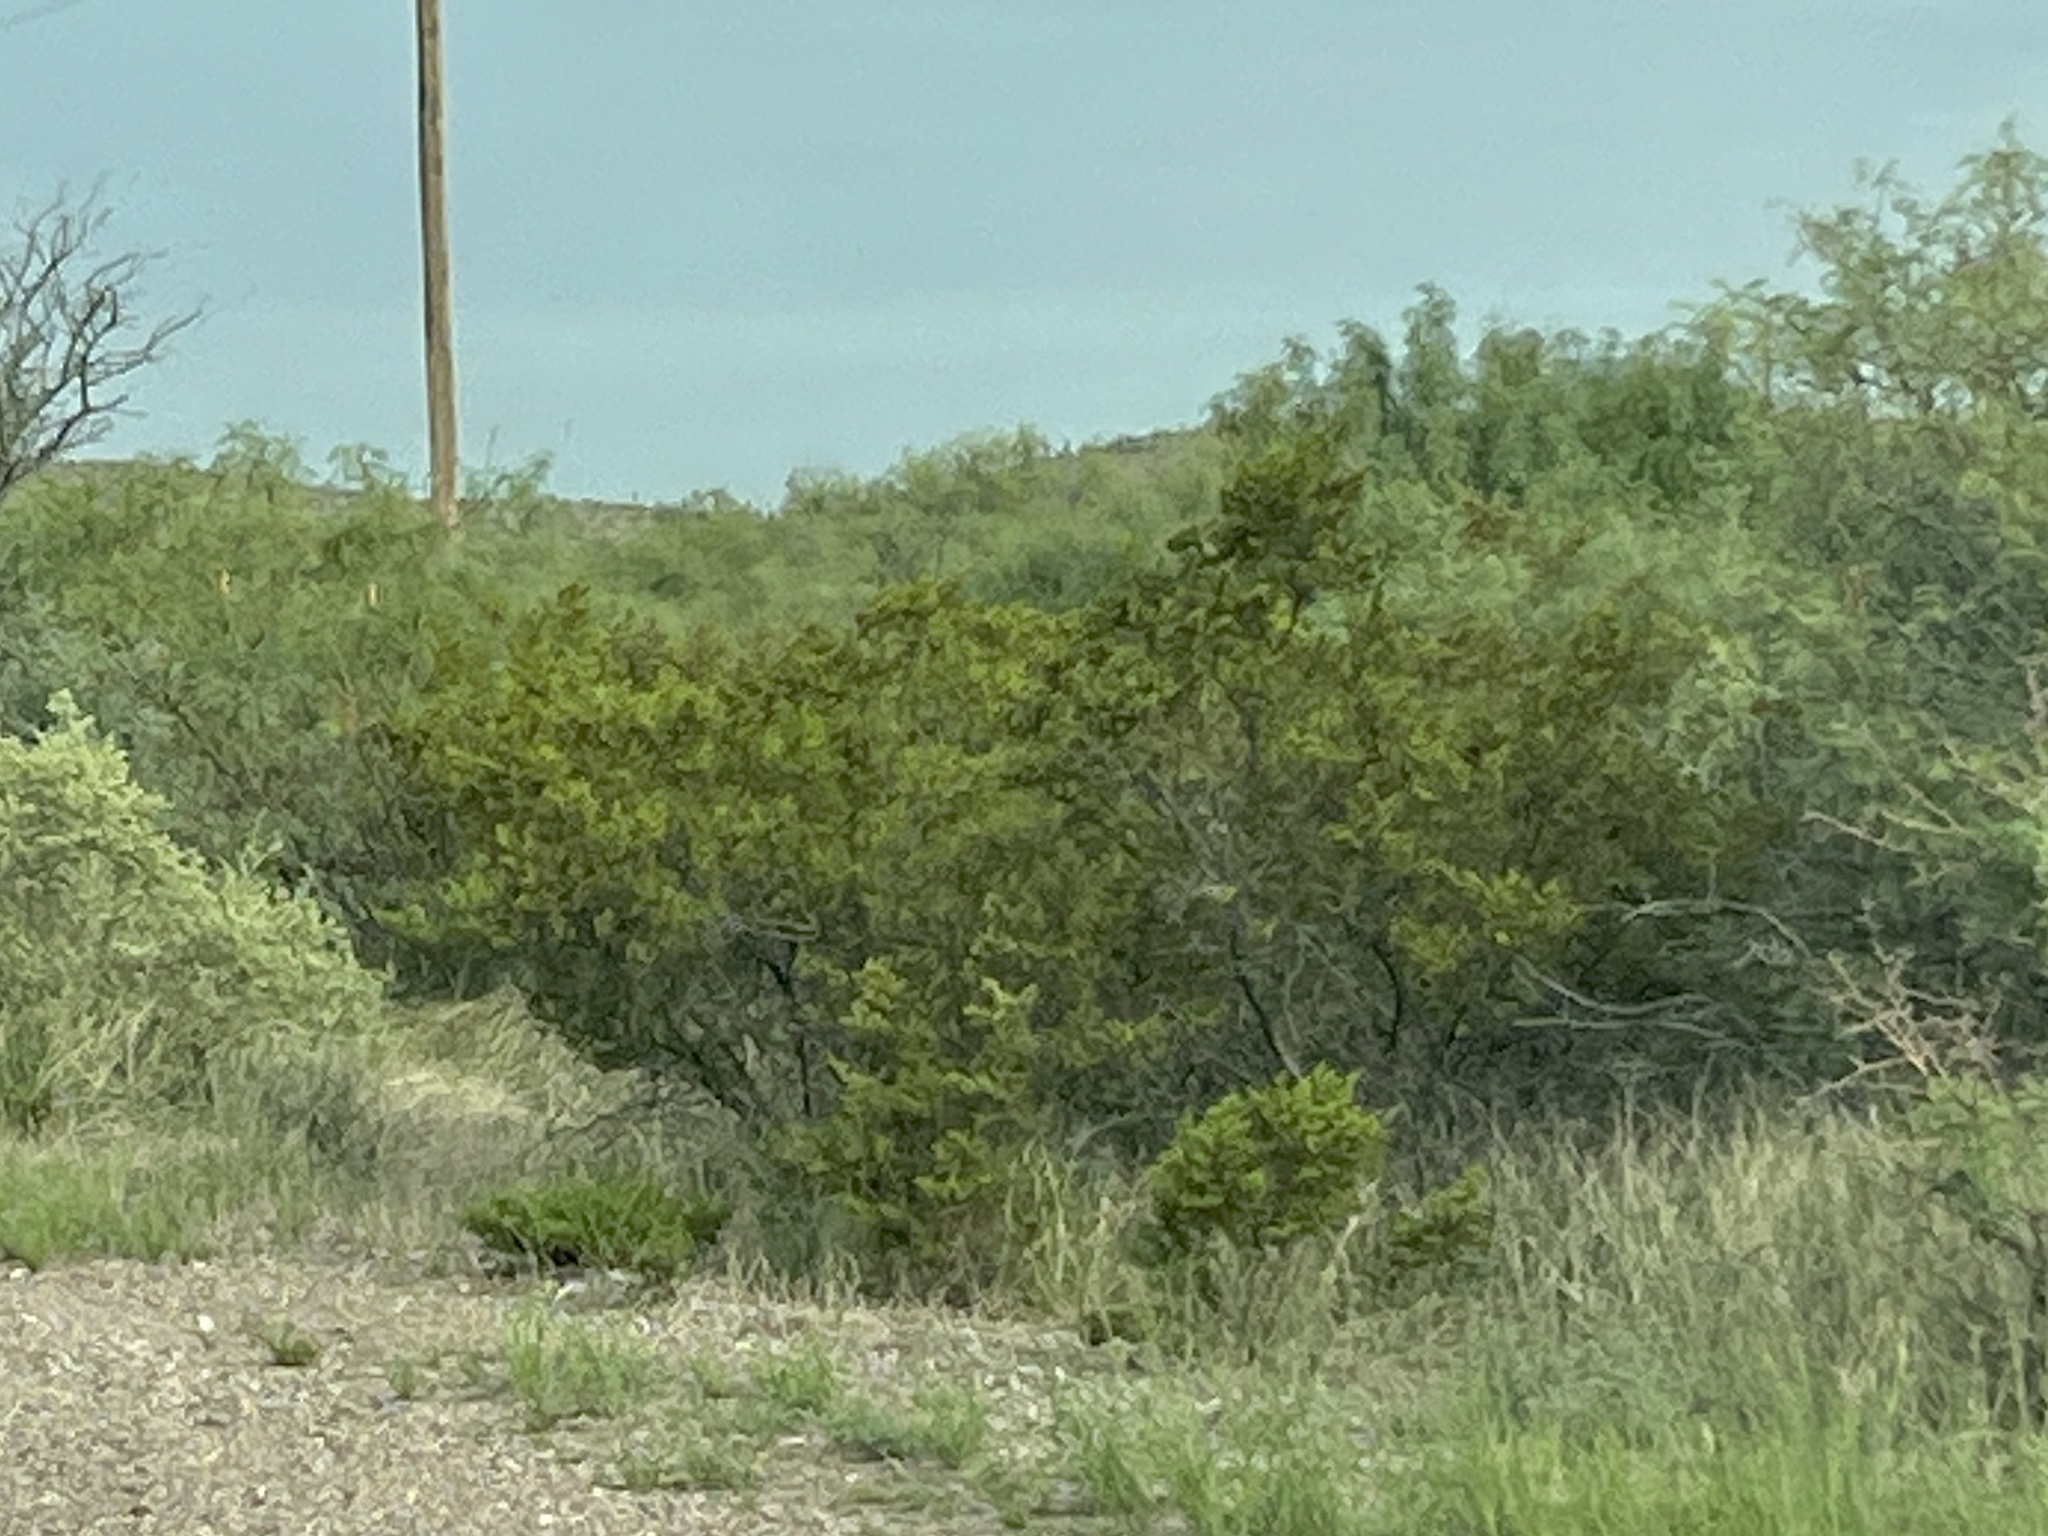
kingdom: Plantae
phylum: Tracheophyta
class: Magnoliopsida
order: Zygophyllales
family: Zygophyllaceae
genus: Larrea
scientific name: Larrea tridentata
